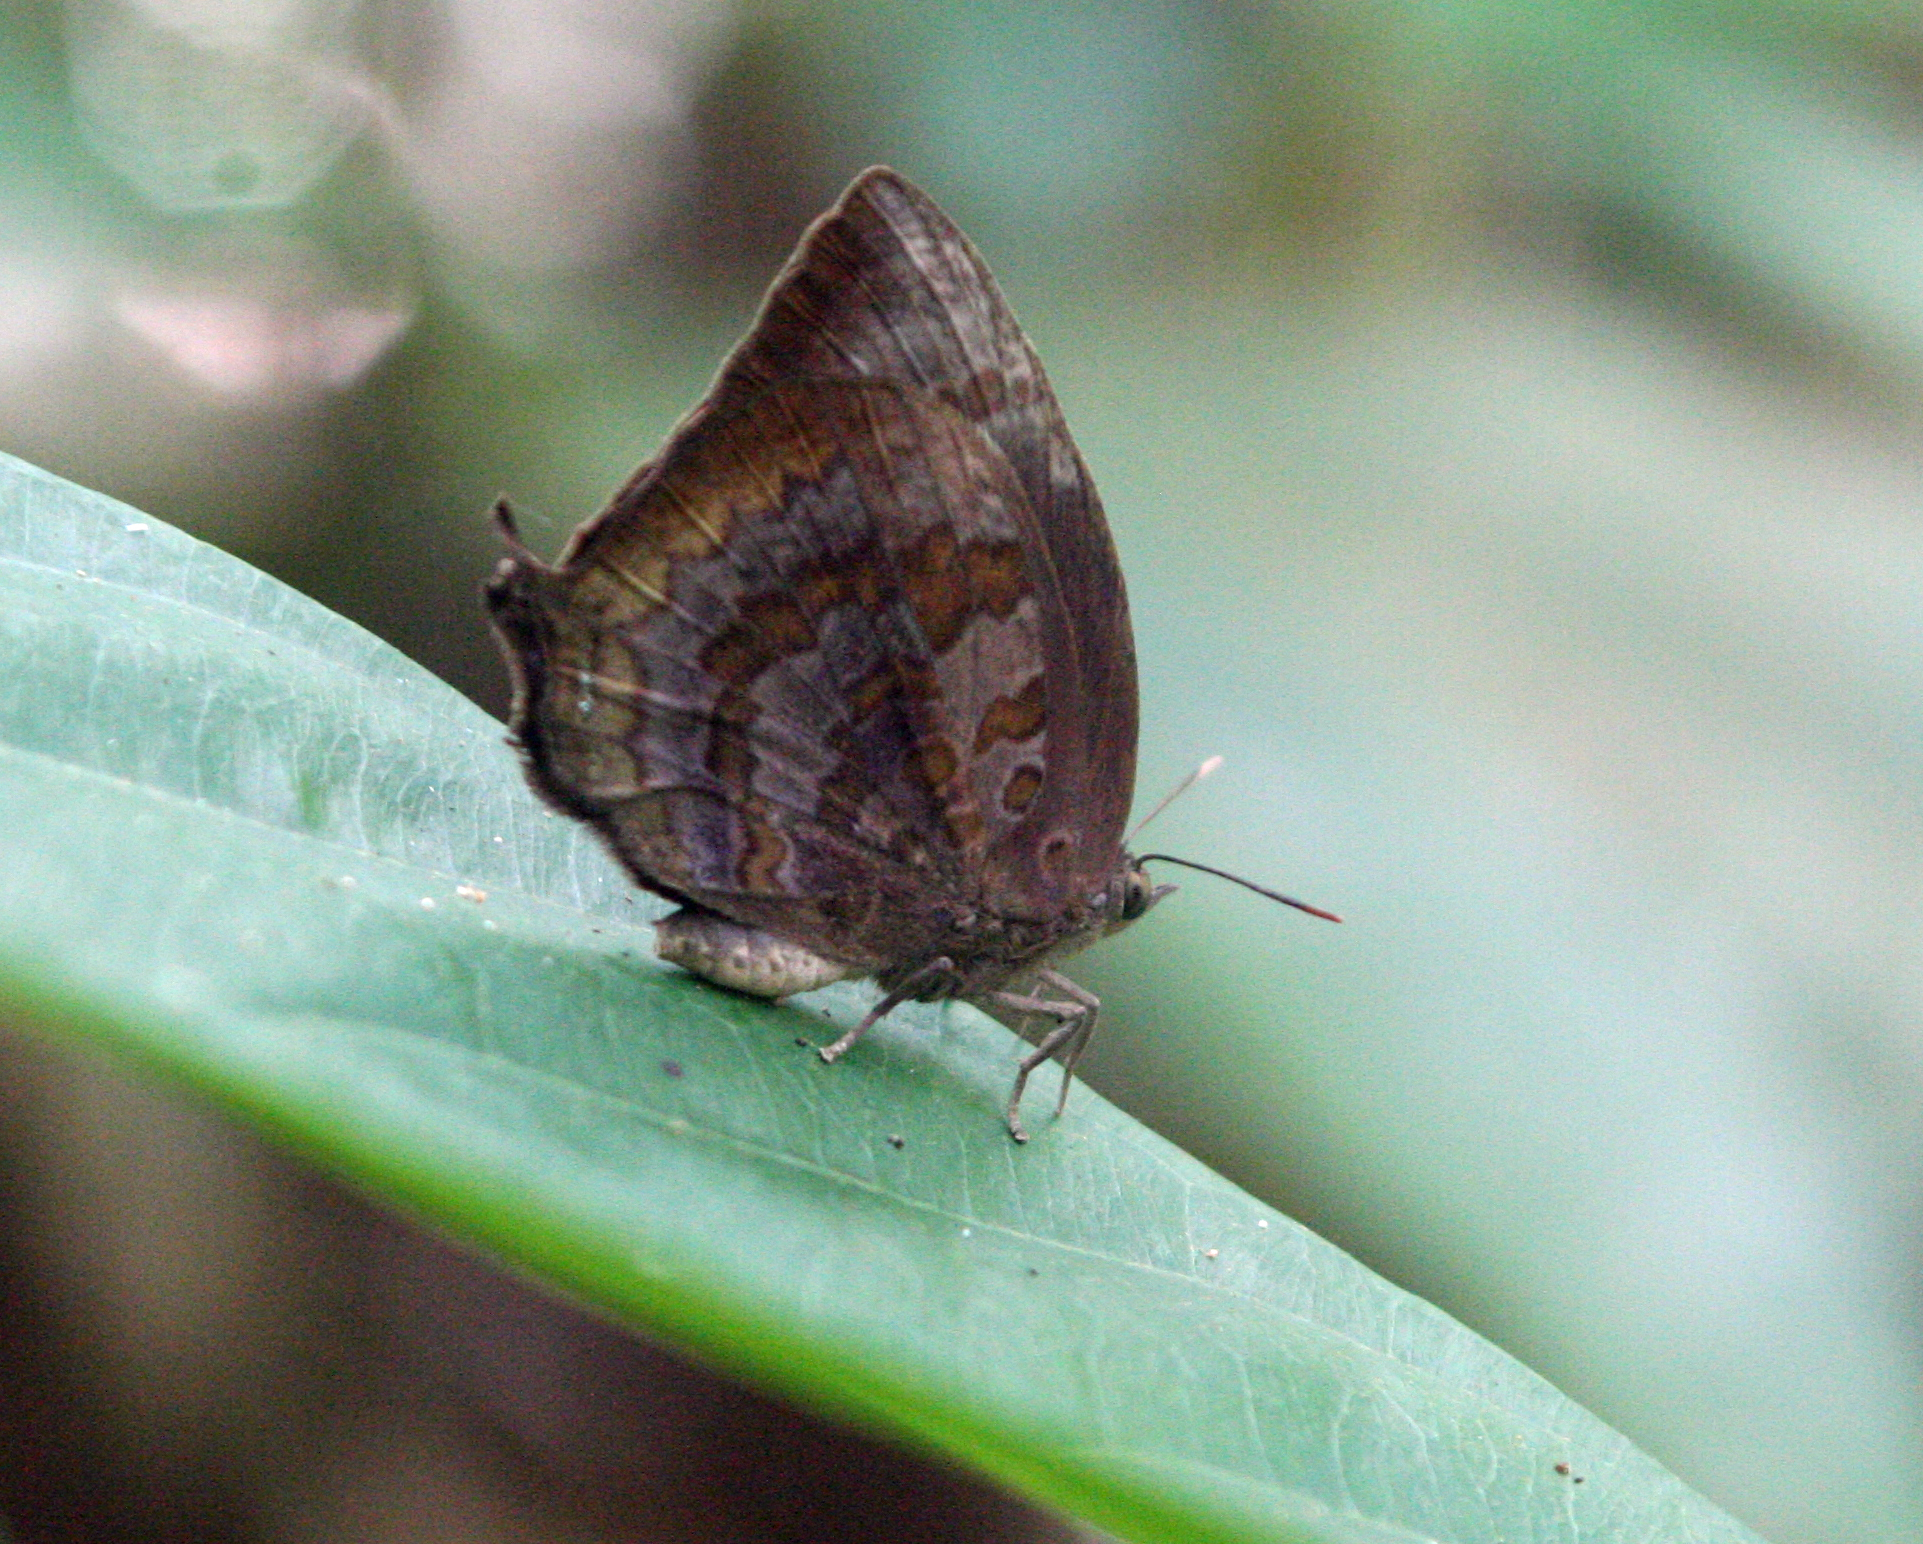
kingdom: Animalia
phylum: Arthropoda
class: Insecta
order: Lepidoptera
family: Lycaenidae
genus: Arhopala
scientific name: Arhopala centaurus
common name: Dull oak-blue
